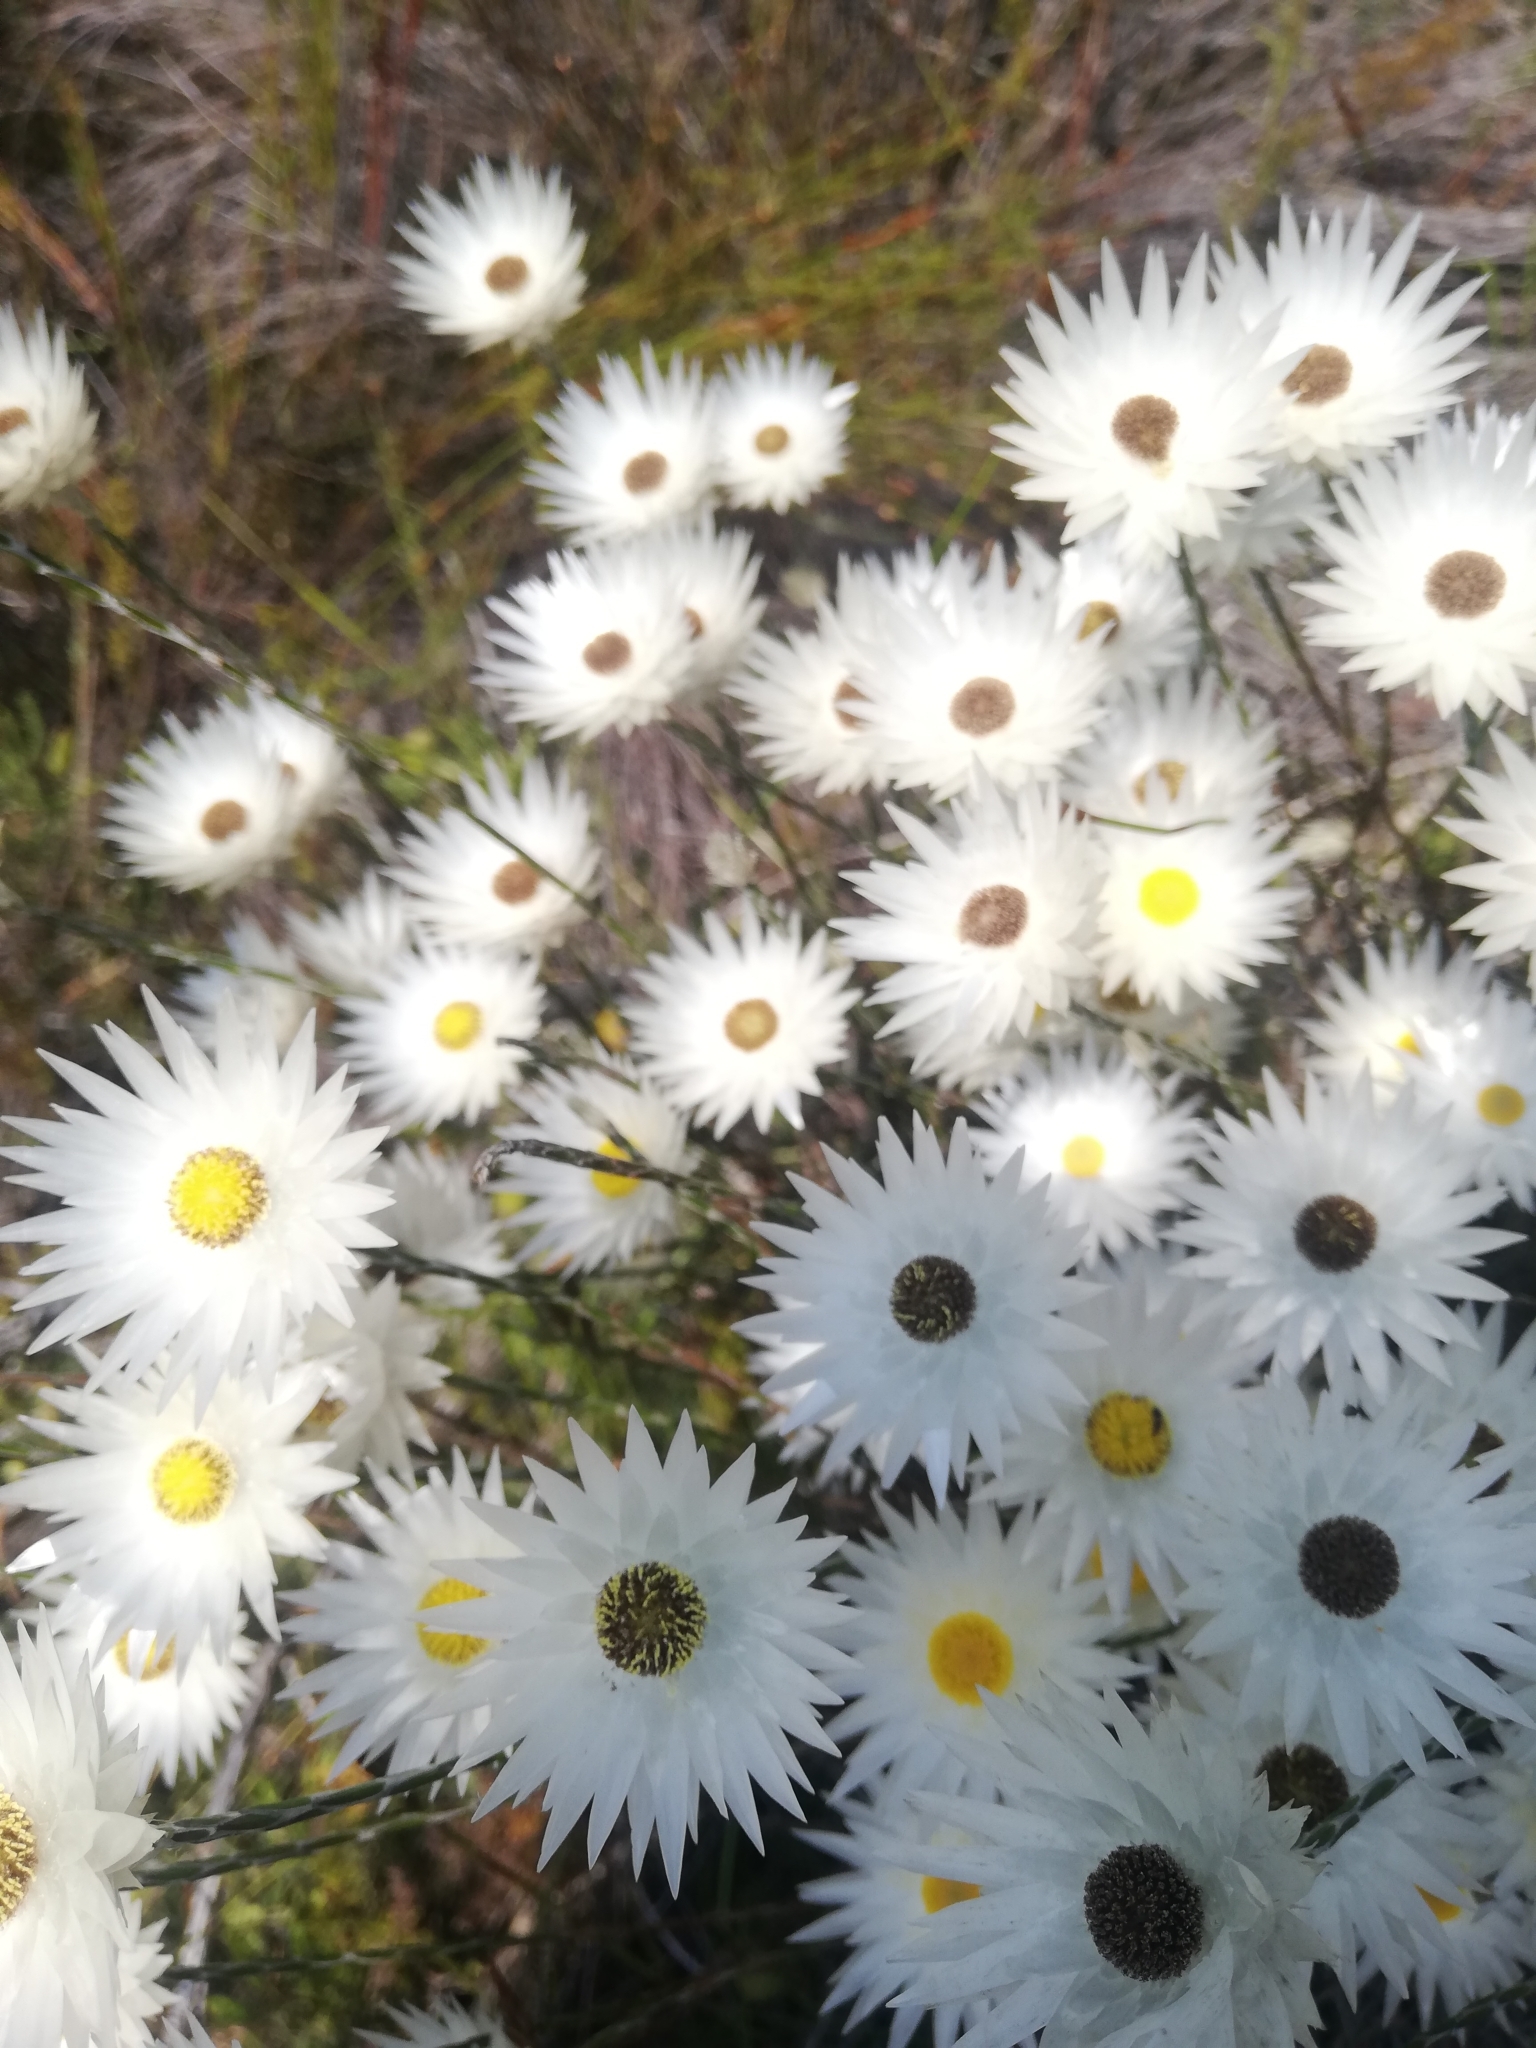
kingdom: Plantae
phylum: Tracheophyta
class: Magnoliopsida
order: Asterales
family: Asteraceae
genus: Edmondia
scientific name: Edmondia sesamoides
